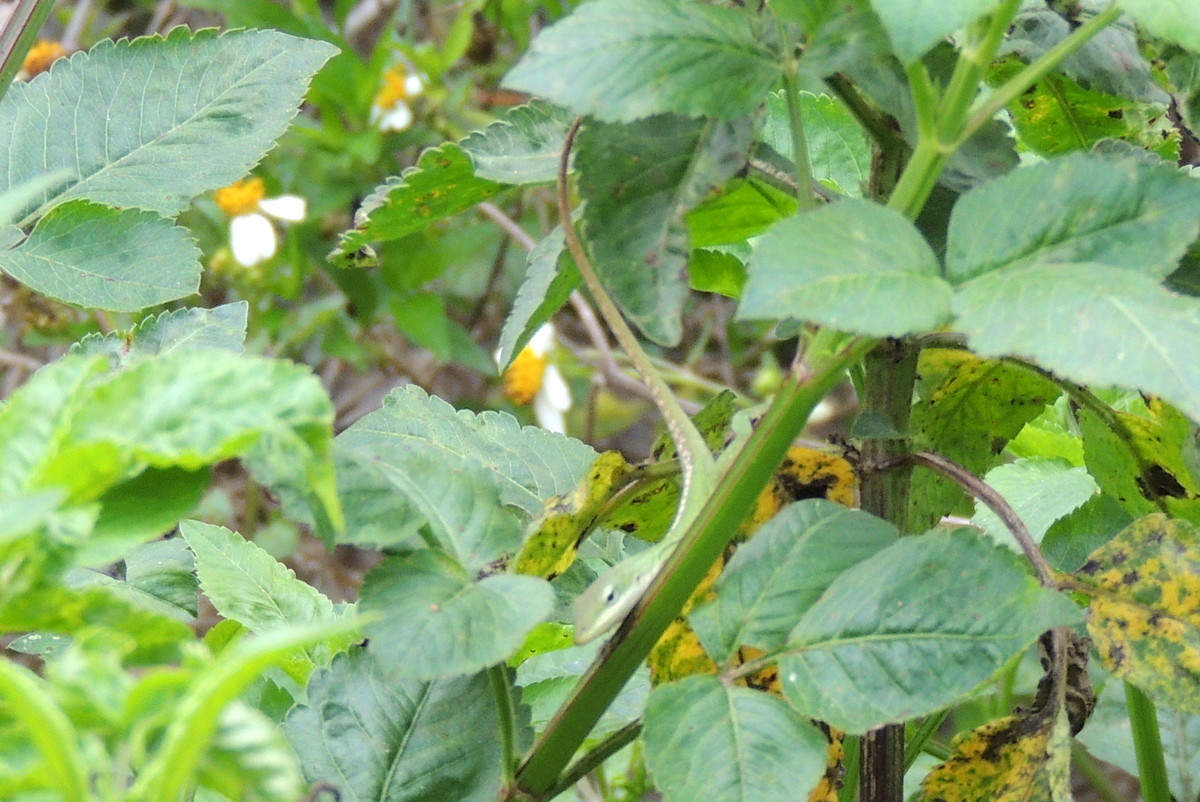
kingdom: Animalia
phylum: Chordata
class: Squamata
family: Dactyloidae
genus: Anolis
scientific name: Anolis carolinensis
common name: Green anole
